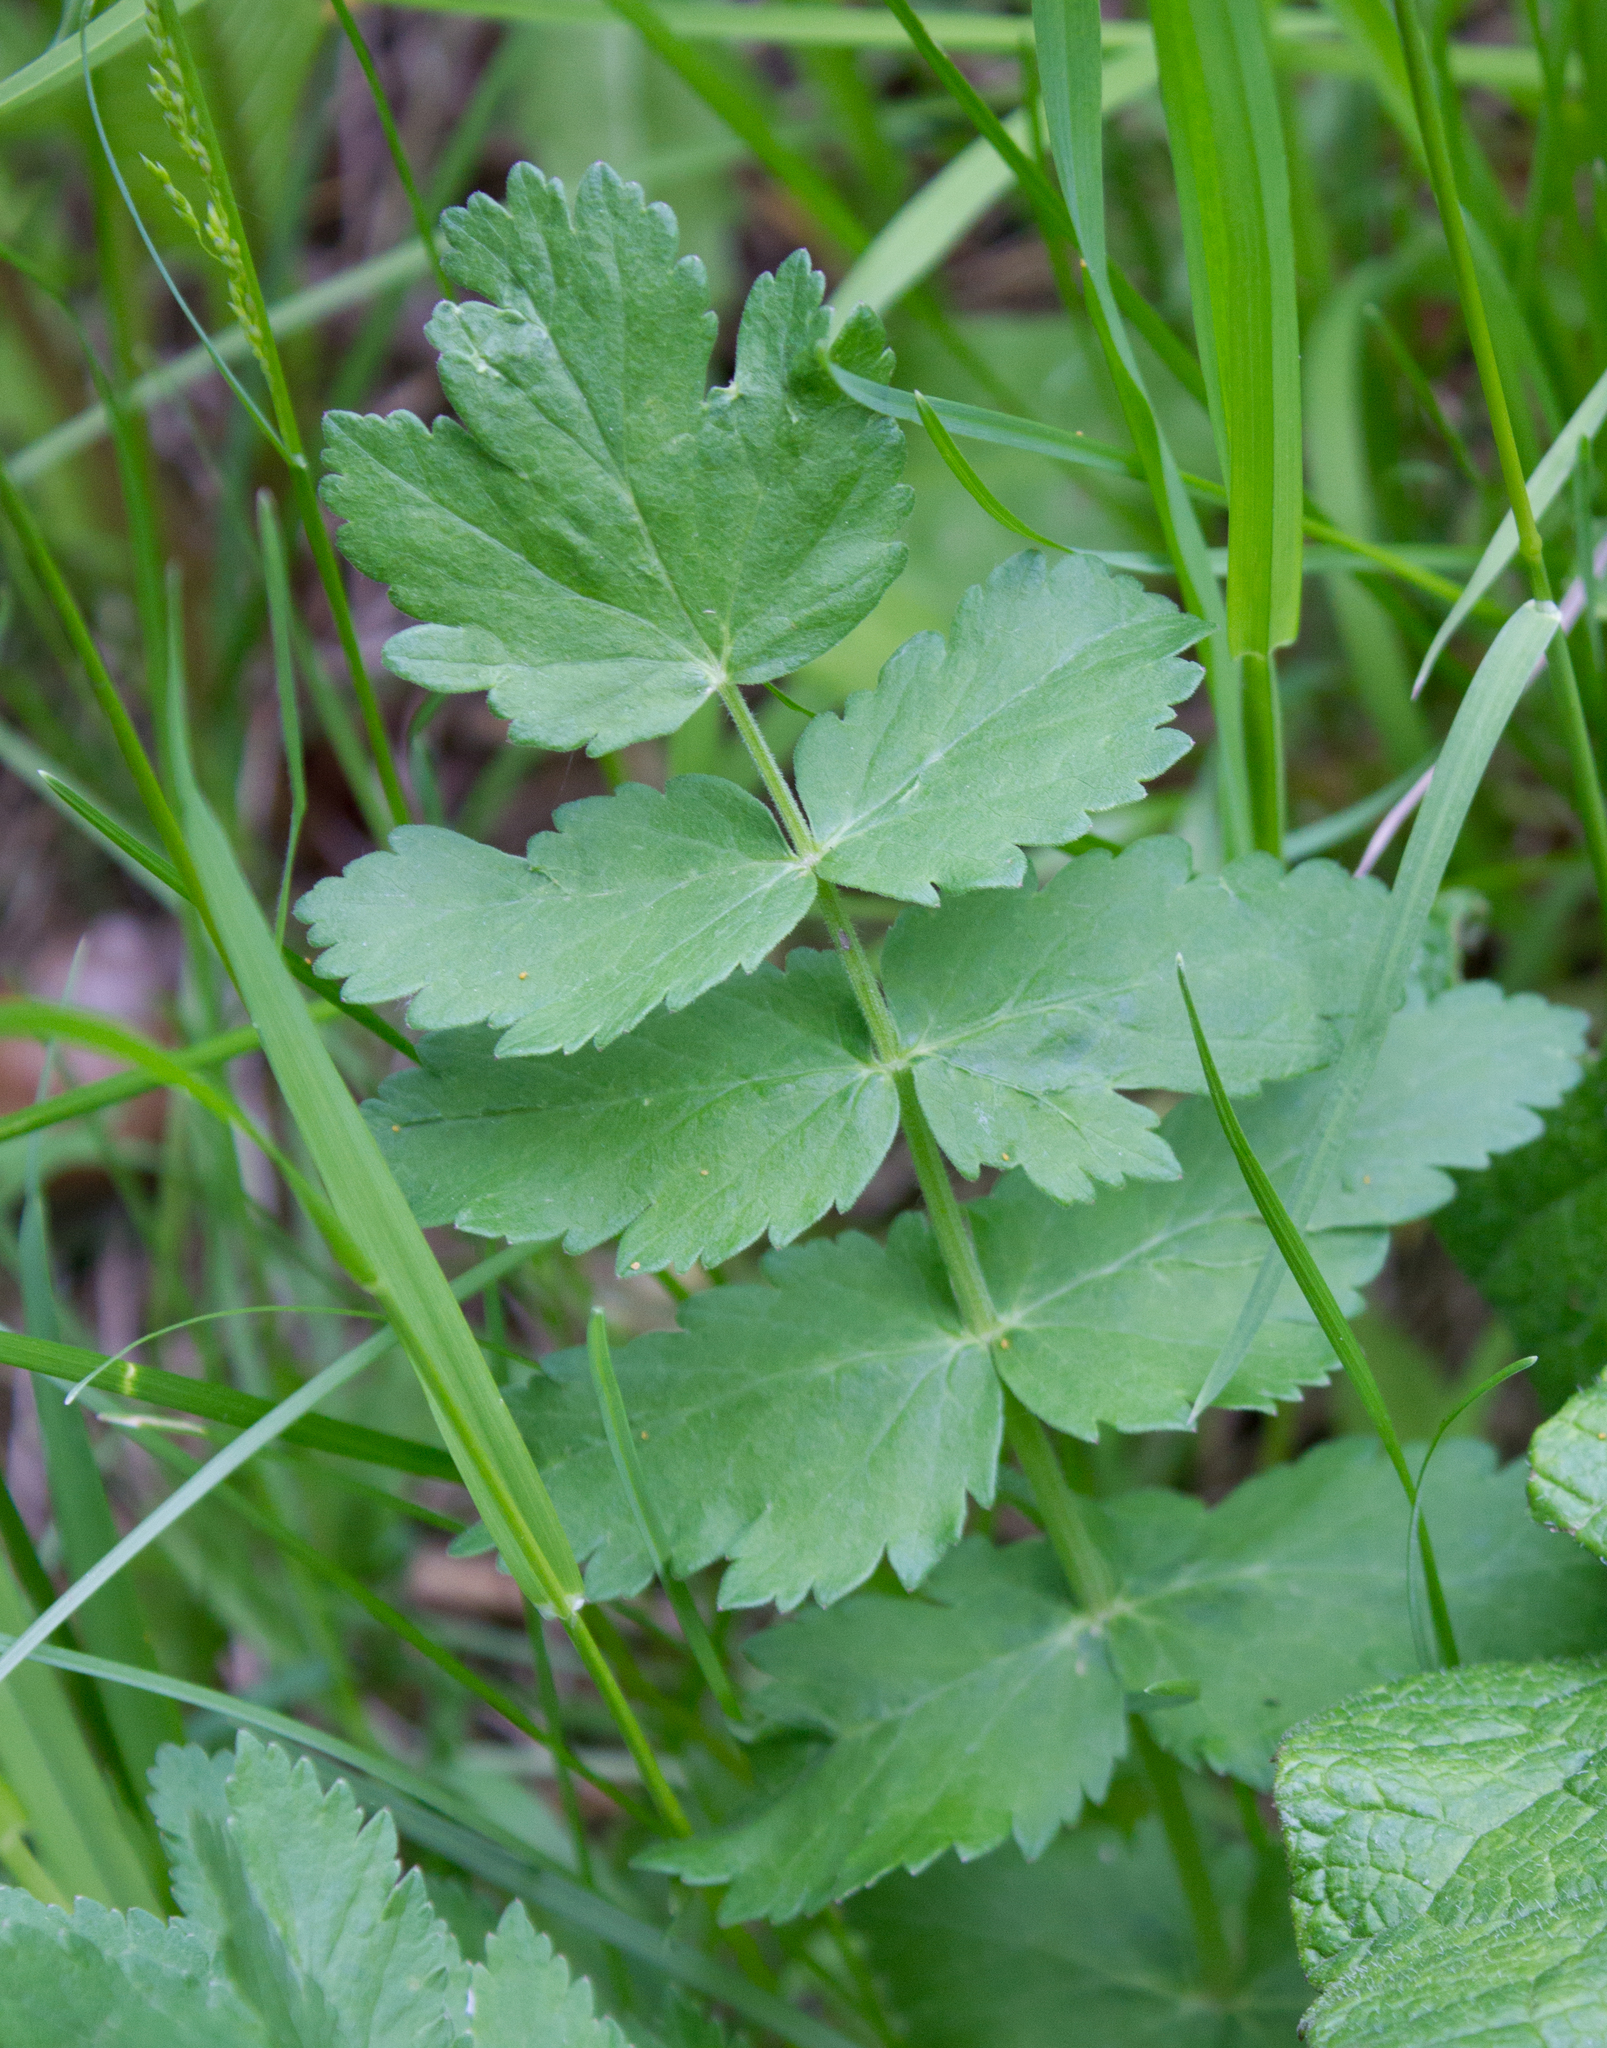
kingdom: Plantae
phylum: Tracheophyta
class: Magnoliopsida
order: Apiales
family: Apiaceae
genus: Pimpinella
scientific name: Pimpinella saxifraga
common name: Burnet-saxifrage
